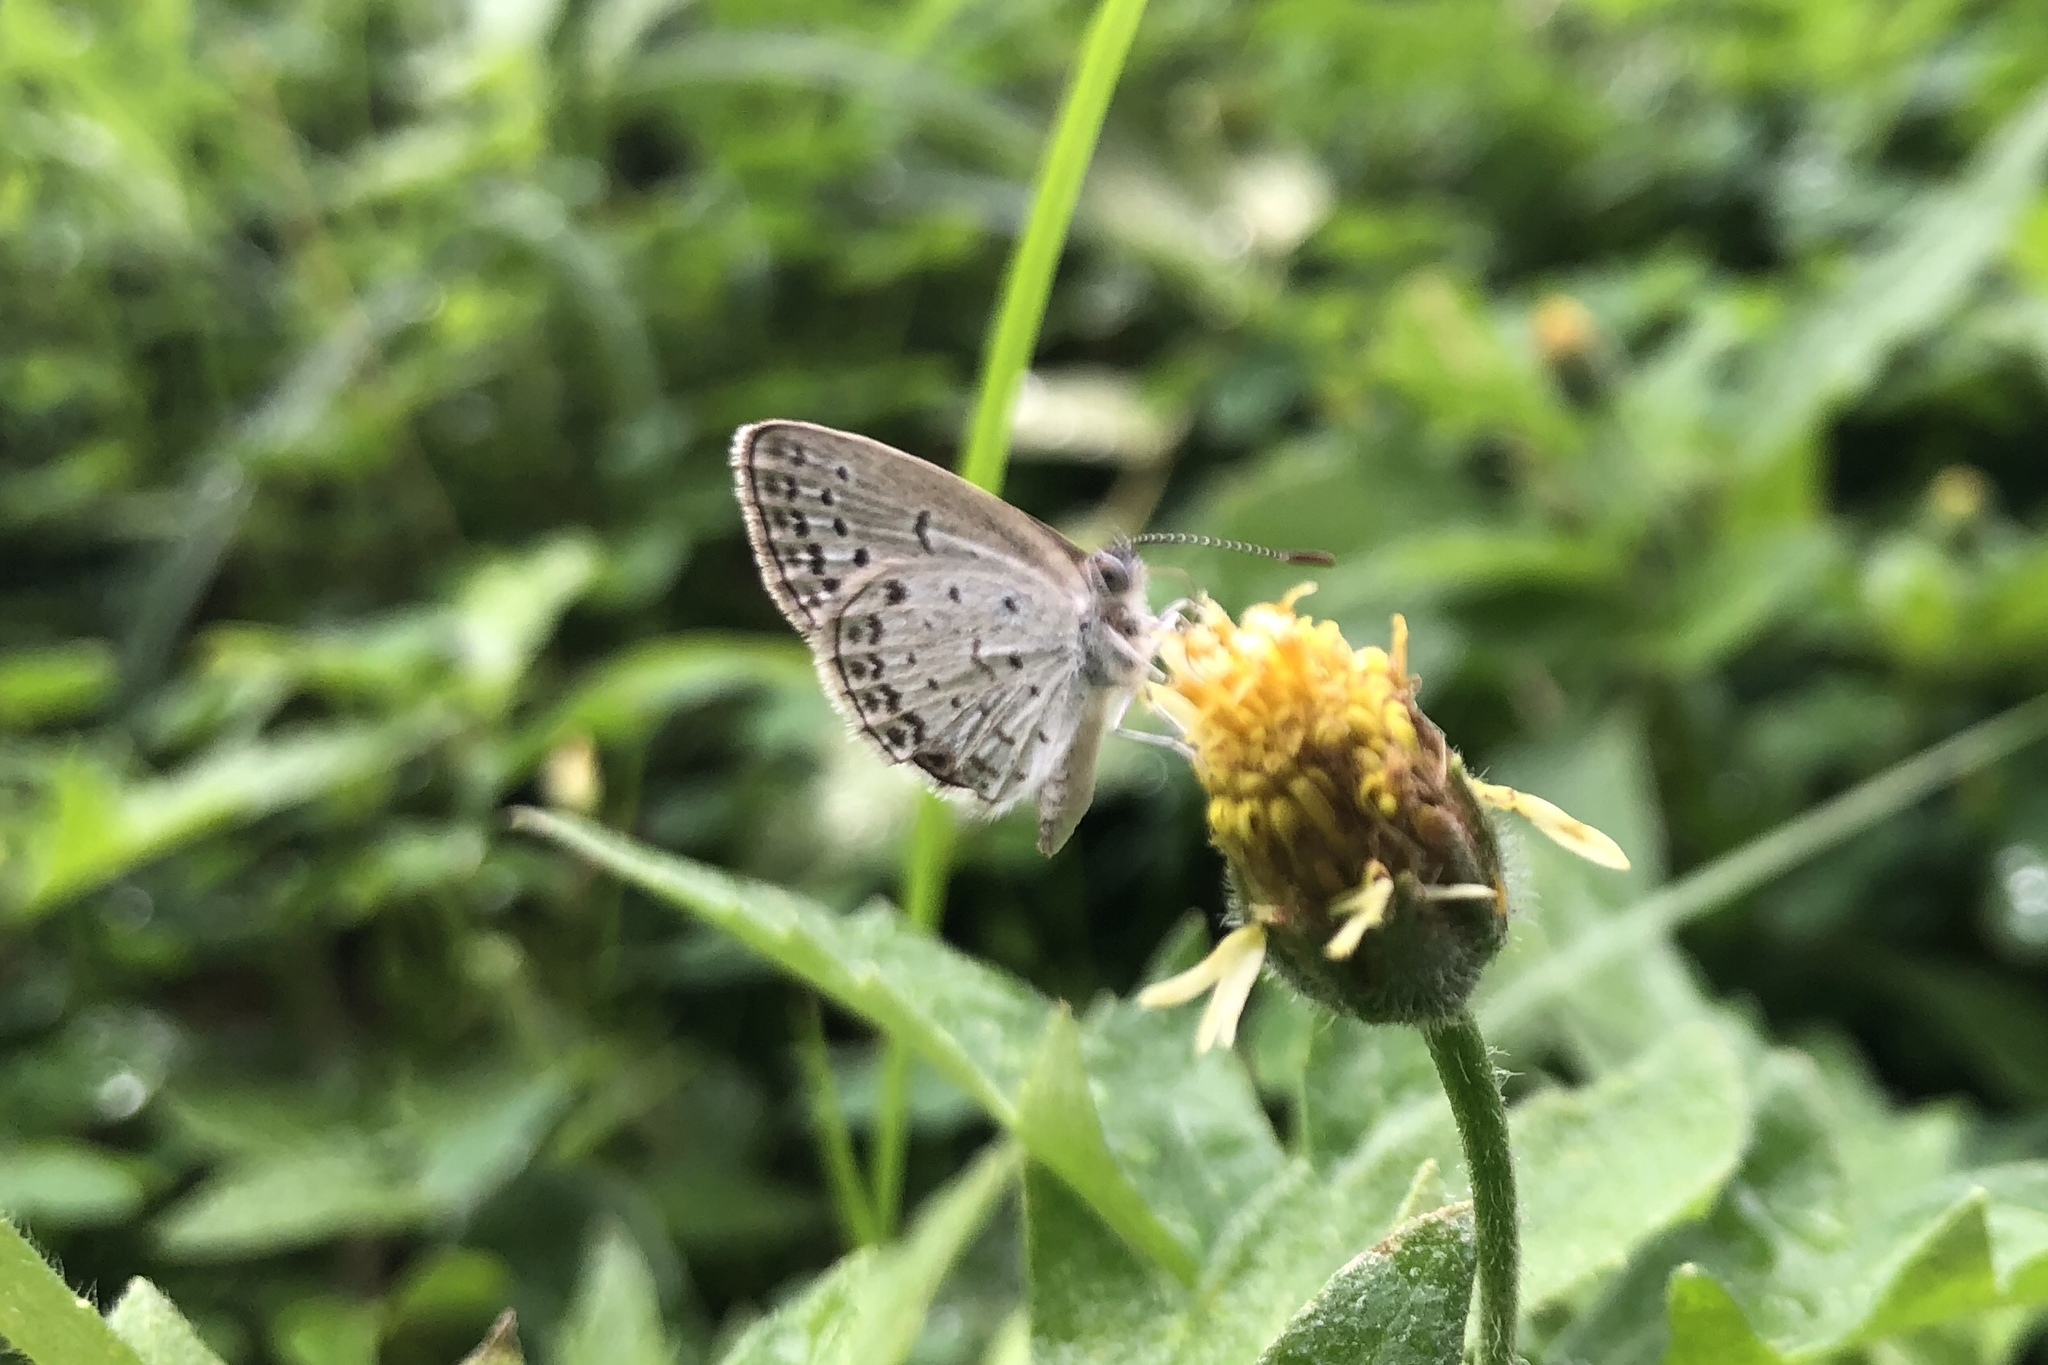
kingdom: Animalia
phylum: Arthropoda
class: Insecta
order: Lepidoptera
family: Lycaenidae
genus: Pseudozizeeria
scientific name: Pseudozizeeria maha
